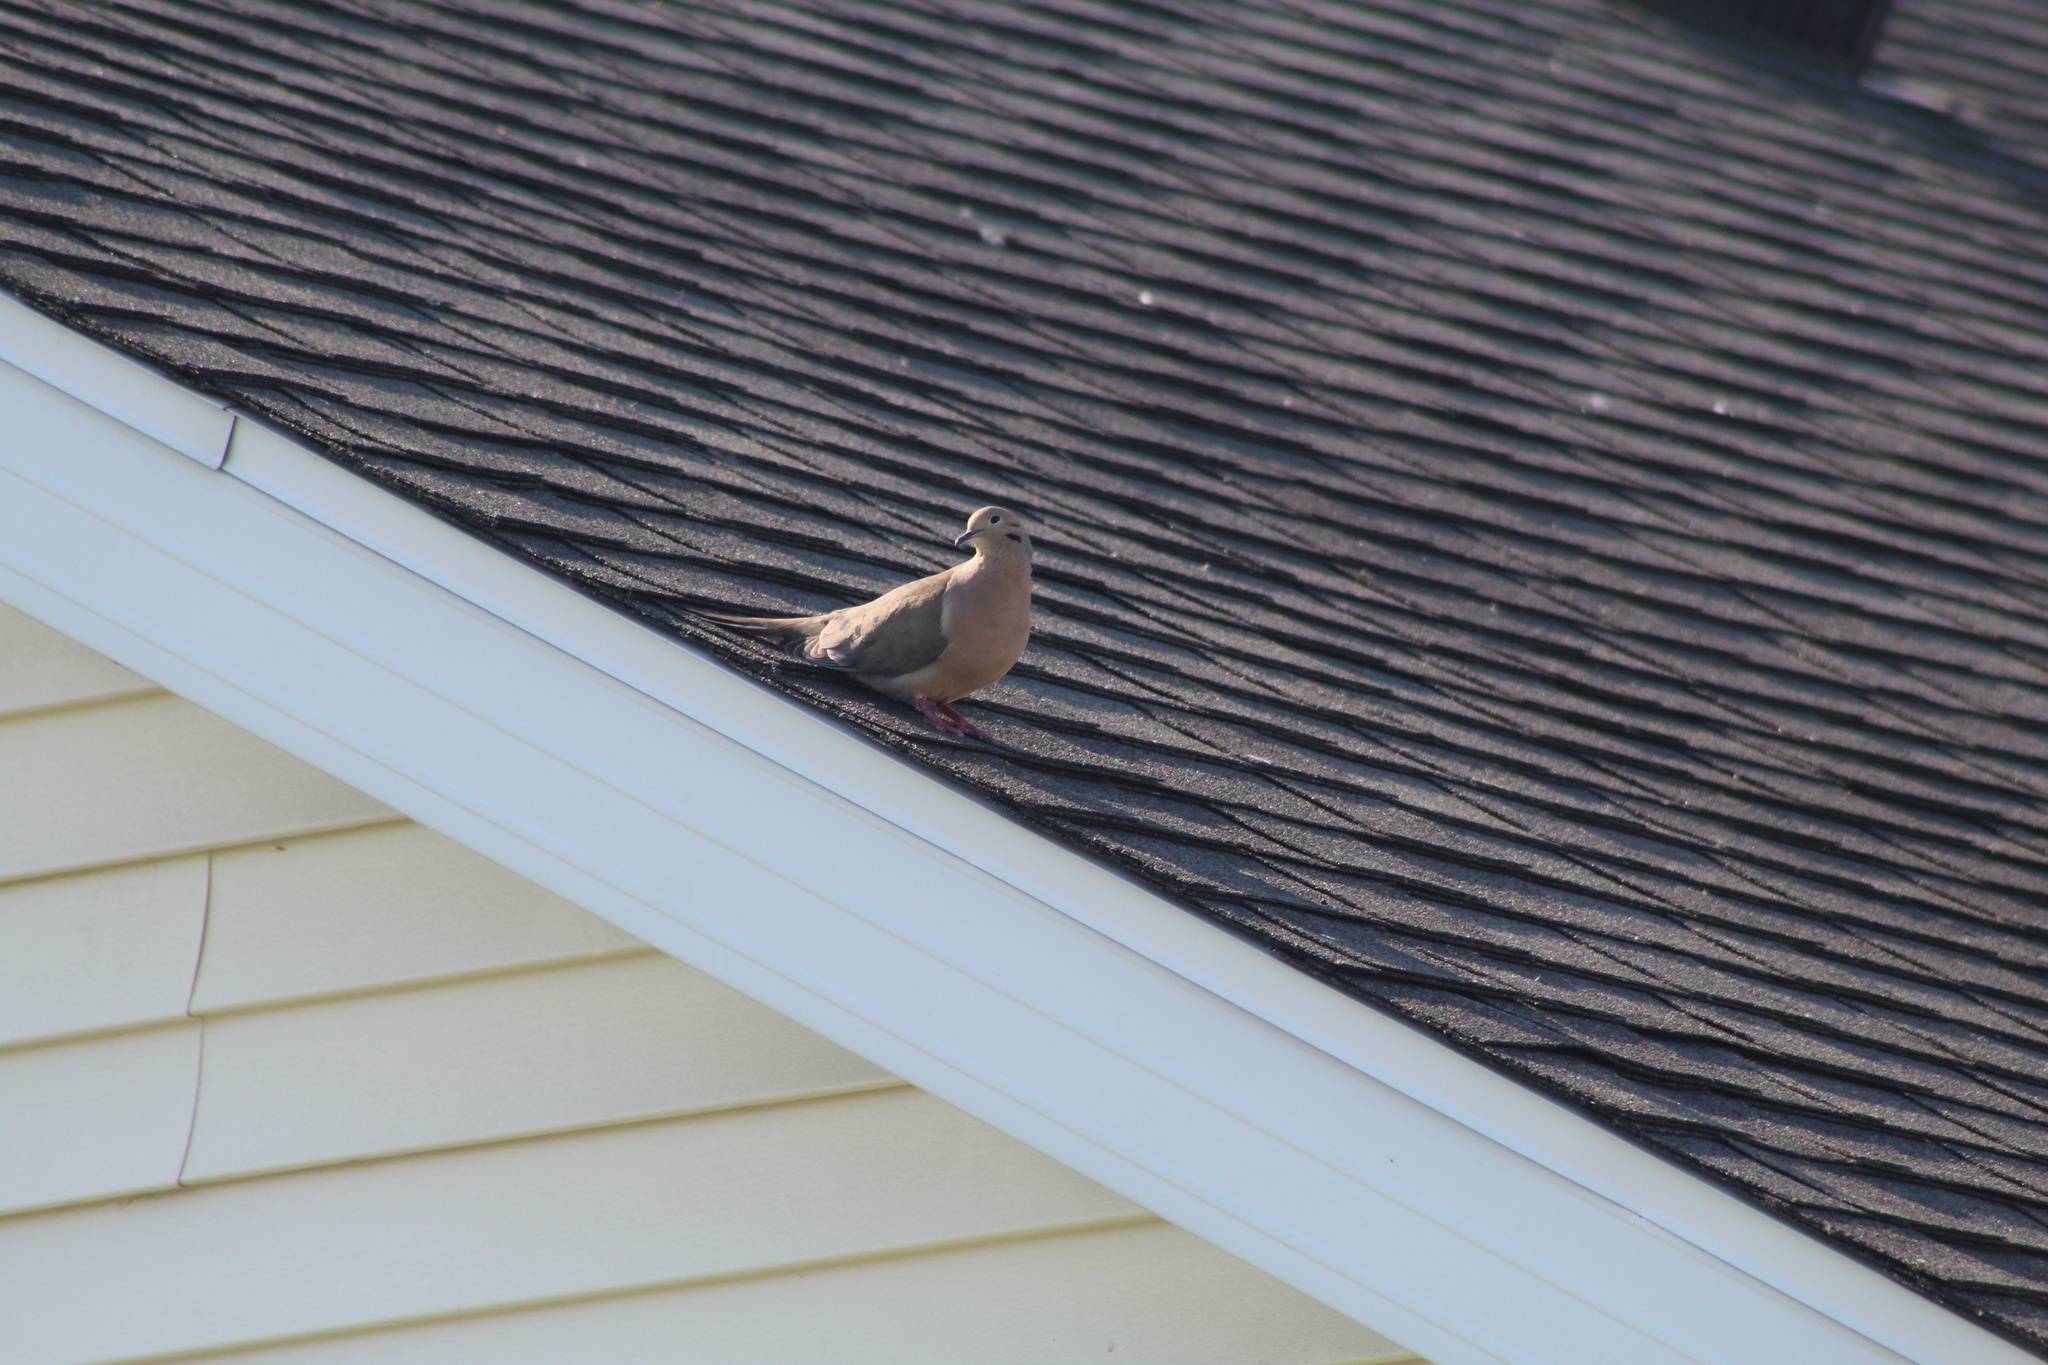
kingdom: Animalia
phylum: Chordata
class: Aves
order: Columbiformes
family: Columbidae
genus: Zenaida
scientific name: Zenaida macroura
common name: Mourning dove
